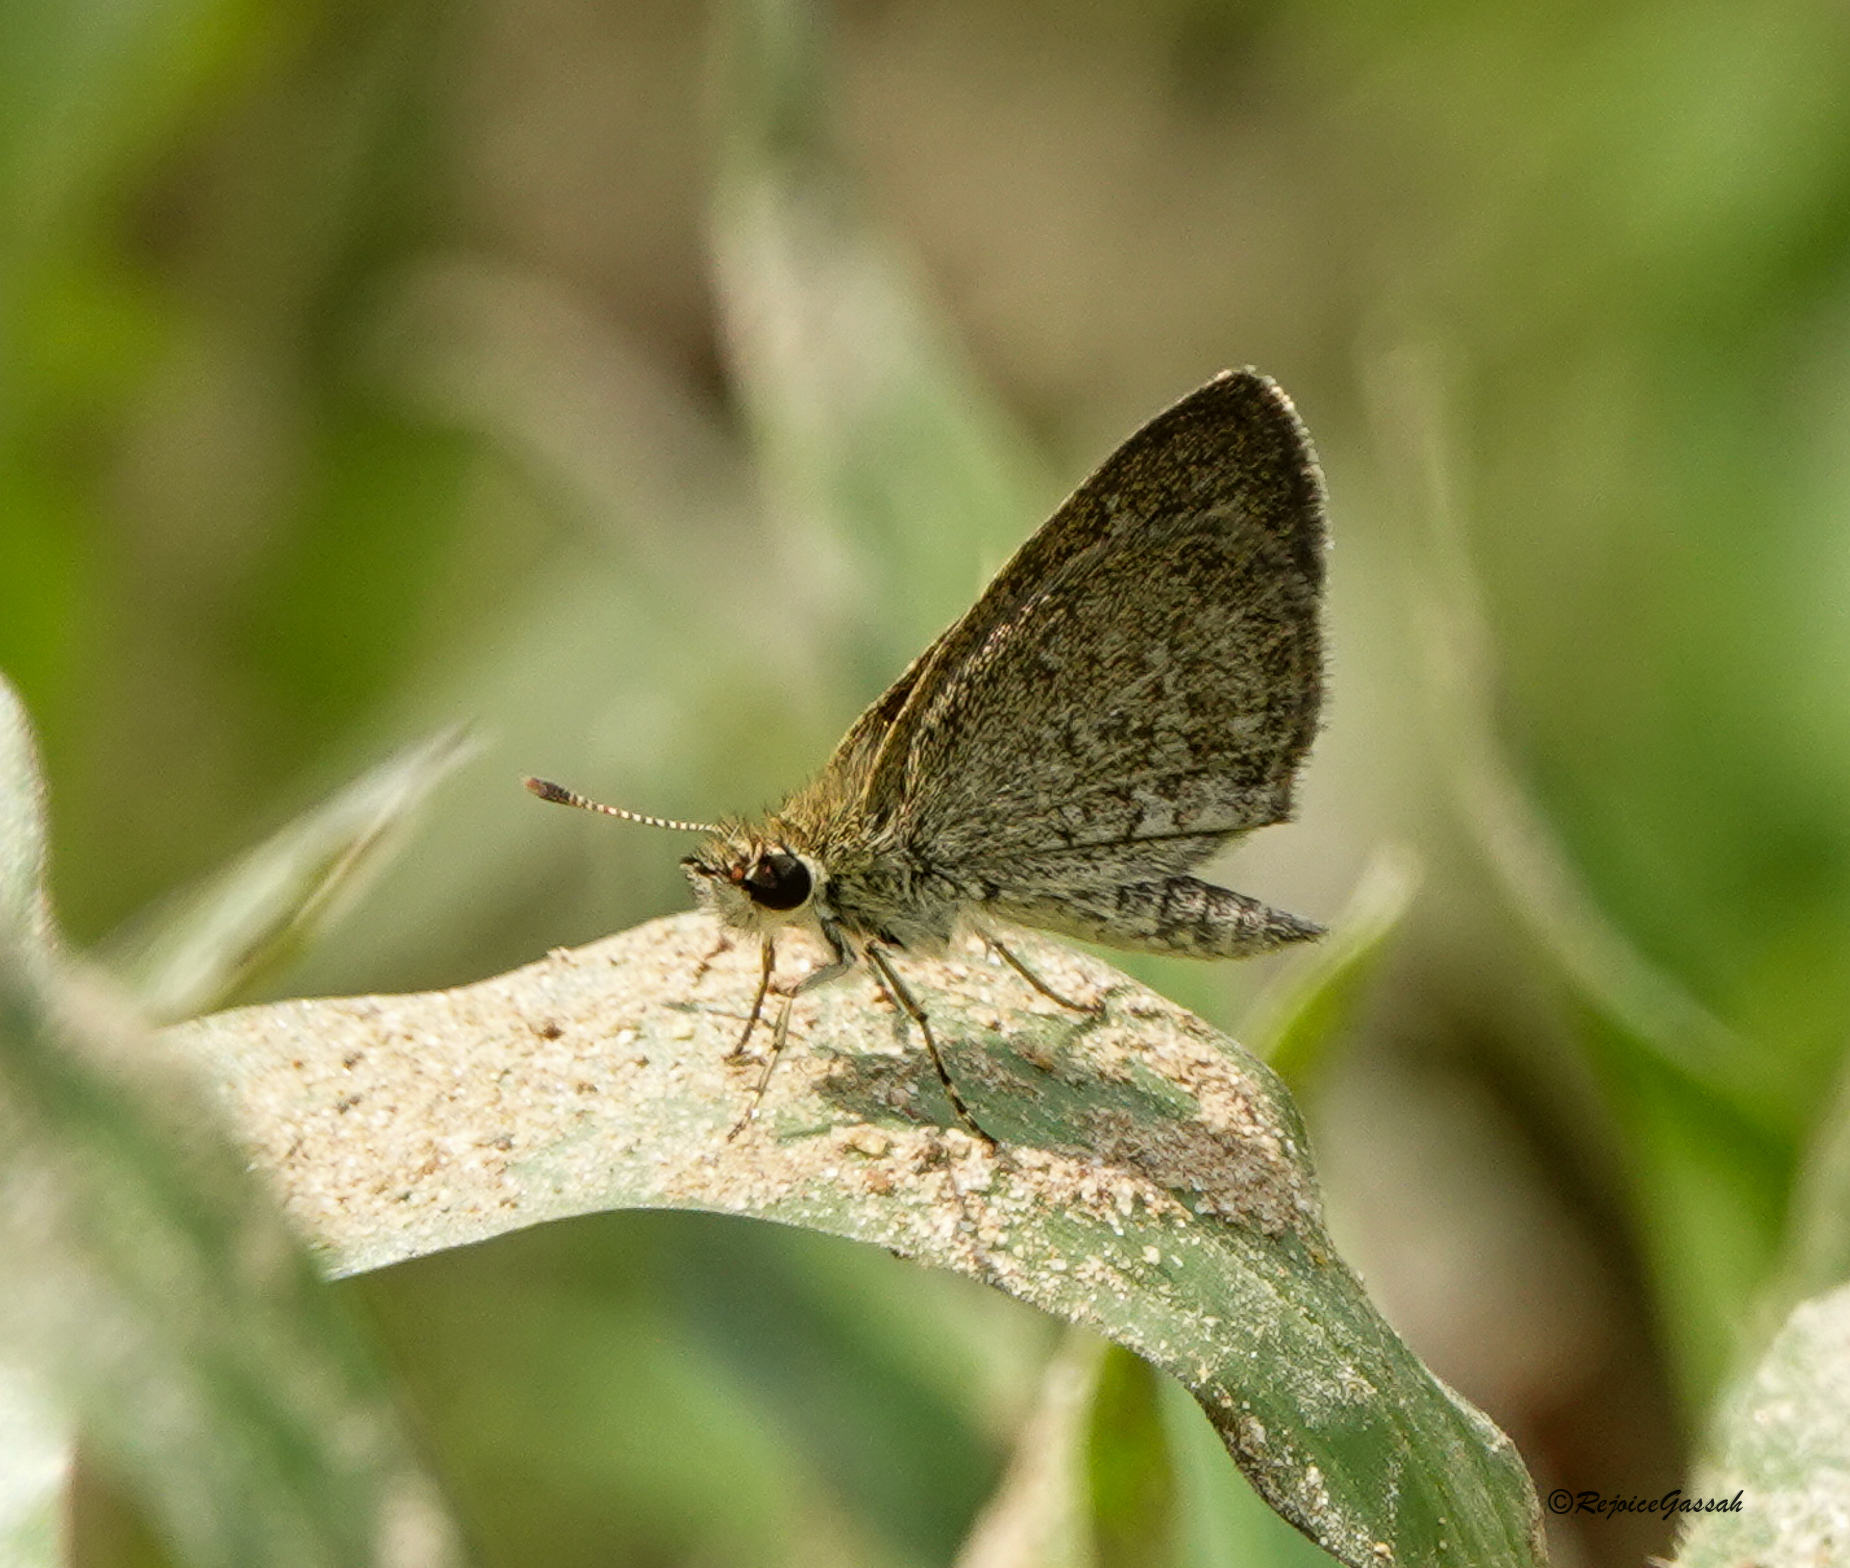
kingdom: Animalia
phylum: Arthropoda
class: Insecta
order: Lepidoptera
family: Hesperiidae
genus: Aeromachus
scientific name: Aeromachus pygmaeus
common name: Pygmy scrub hopper
